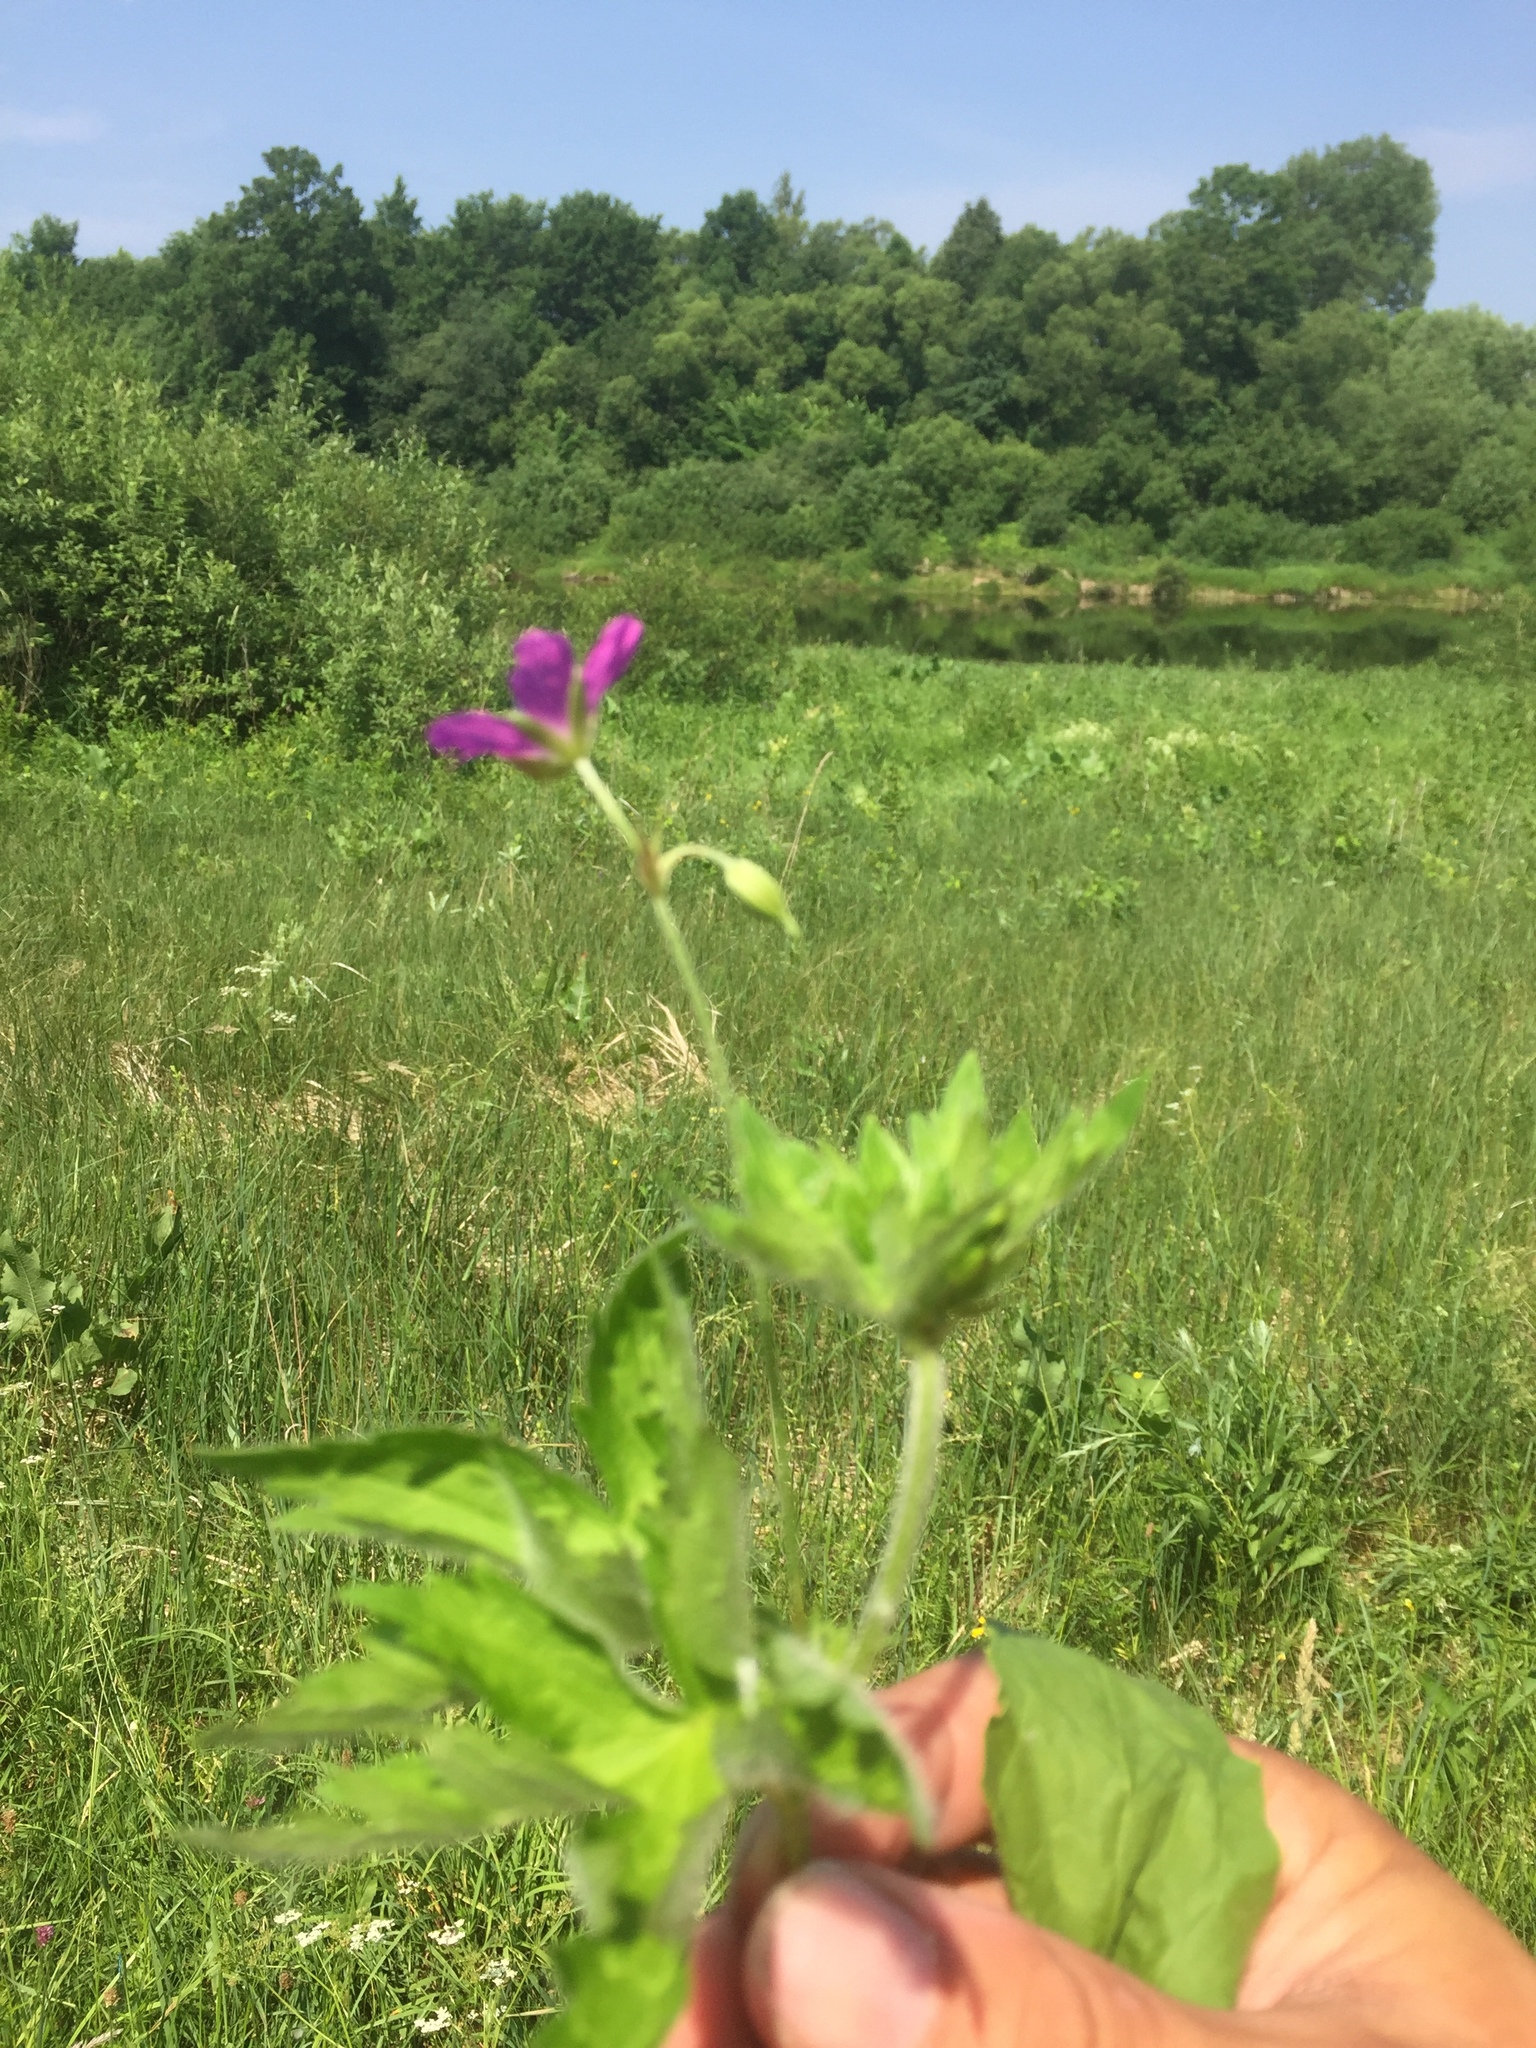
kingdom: Plantae
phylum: Tracheophyta
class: Magnoliopsida
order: Geraniales
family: Geraniaceae
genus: Geranium
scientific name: Geranium palustre
